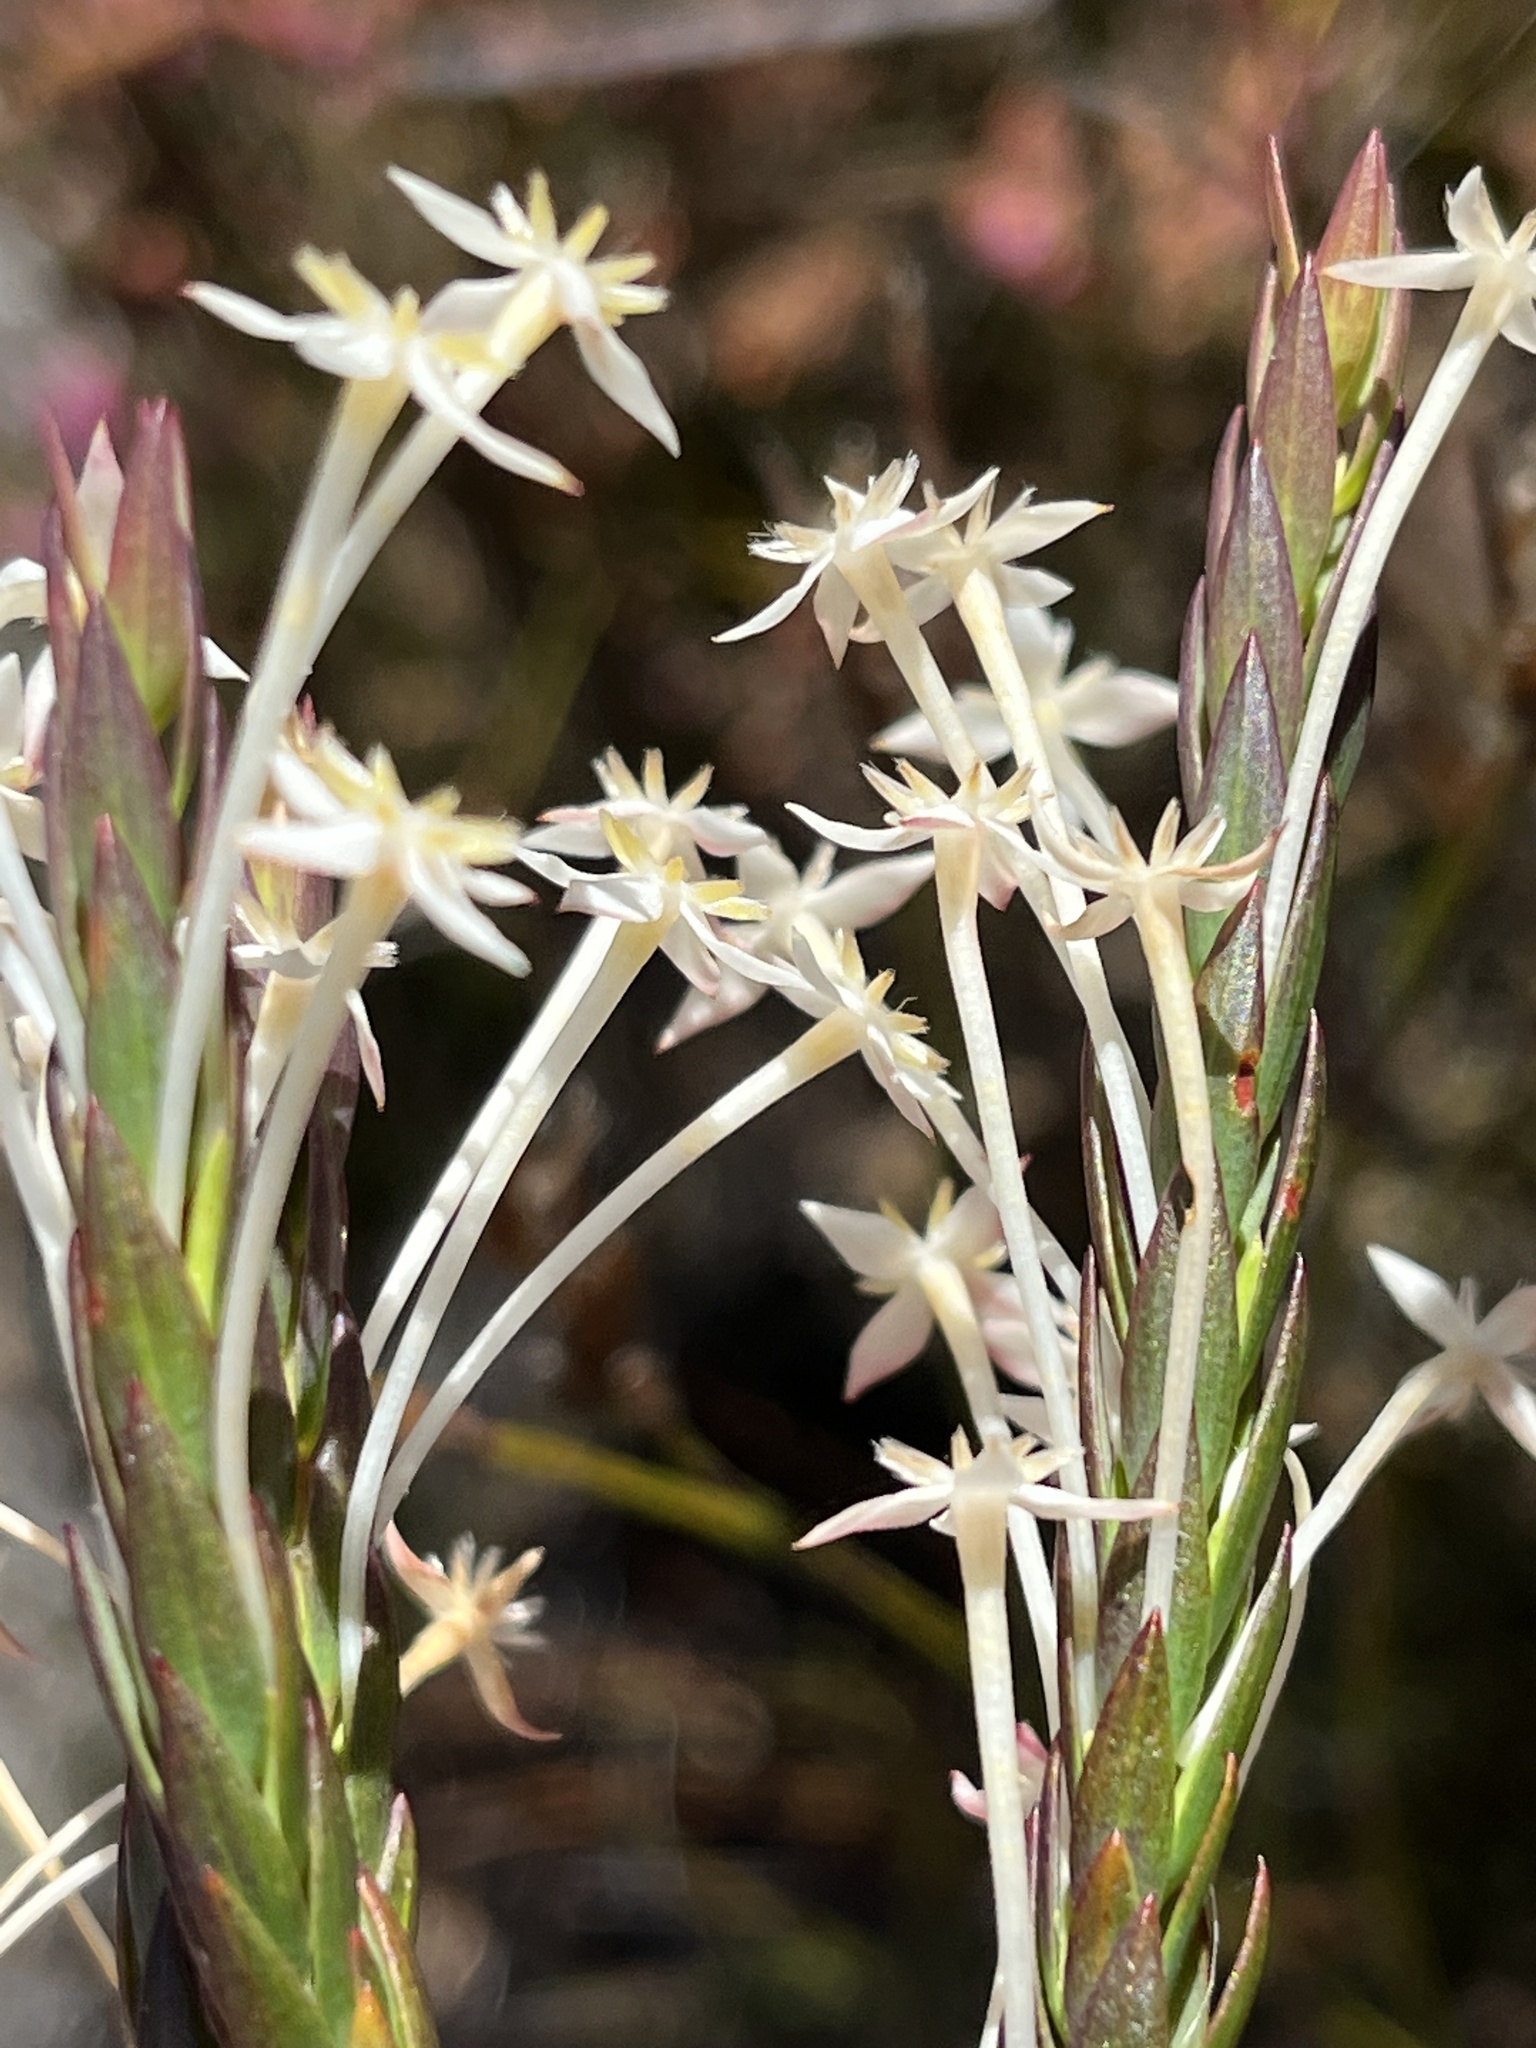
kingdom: Plantae
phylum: Tracheophyta
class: Magnoliopsida
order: Malvales
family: Thymelaeaceae
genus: Struthiola
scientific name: Struthiola myrsinites
